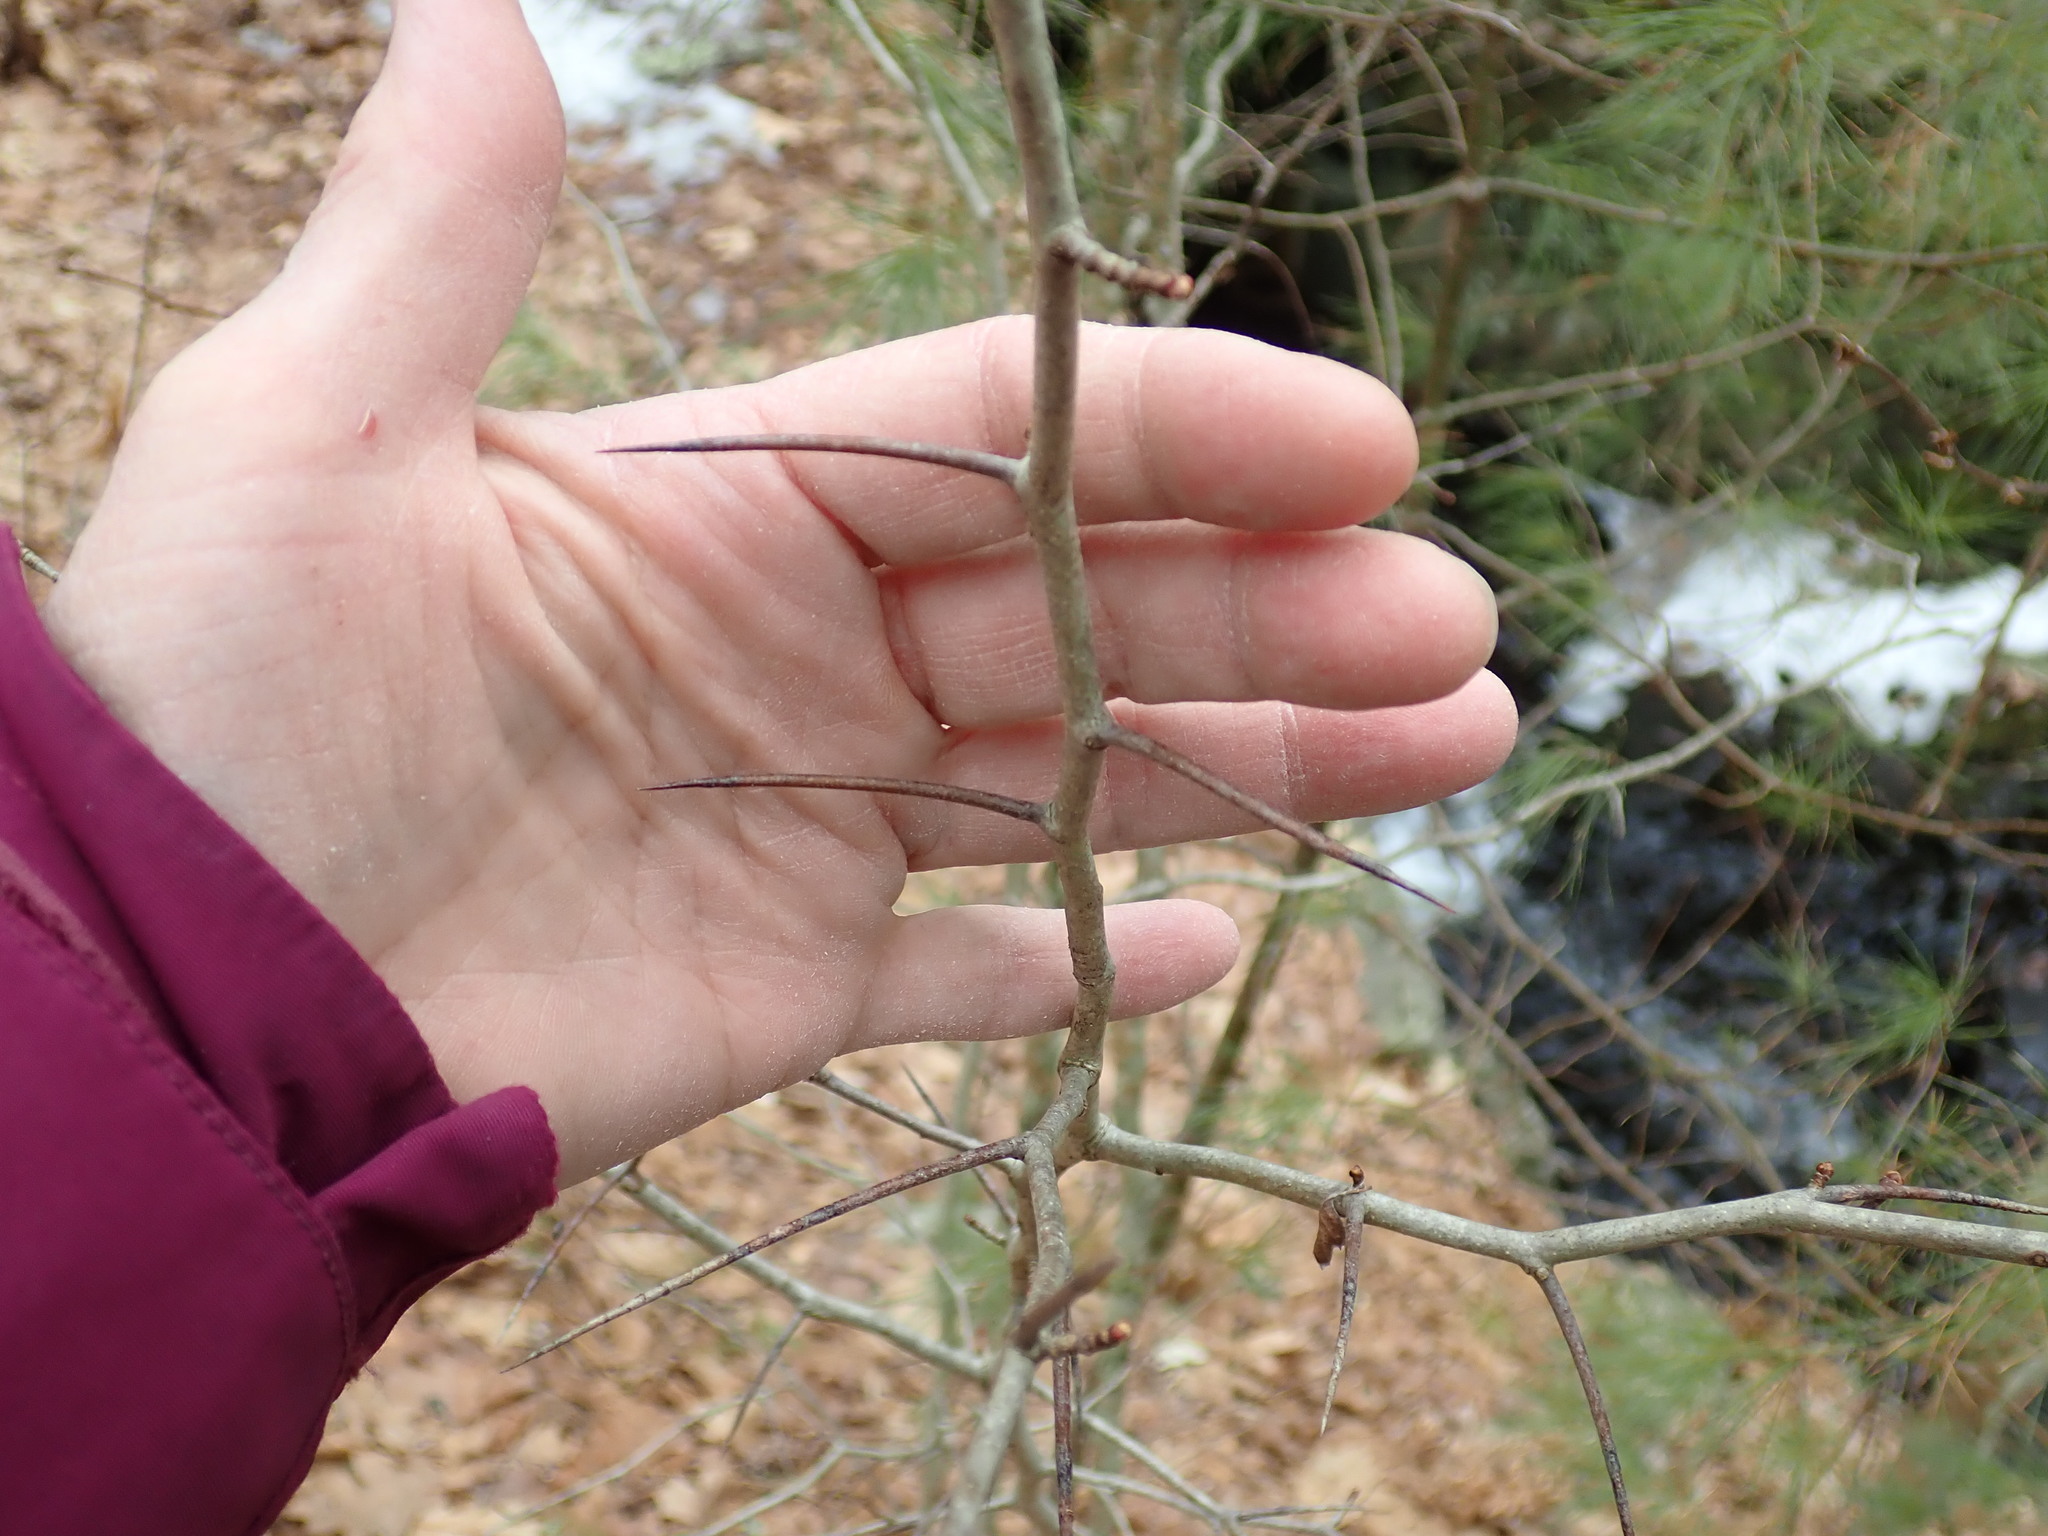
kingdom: Plantae
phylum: Tracheophyta
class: Magnoliopsida
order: Rosales
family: Rosaceae
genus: Crataegus
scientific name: Crataegus
